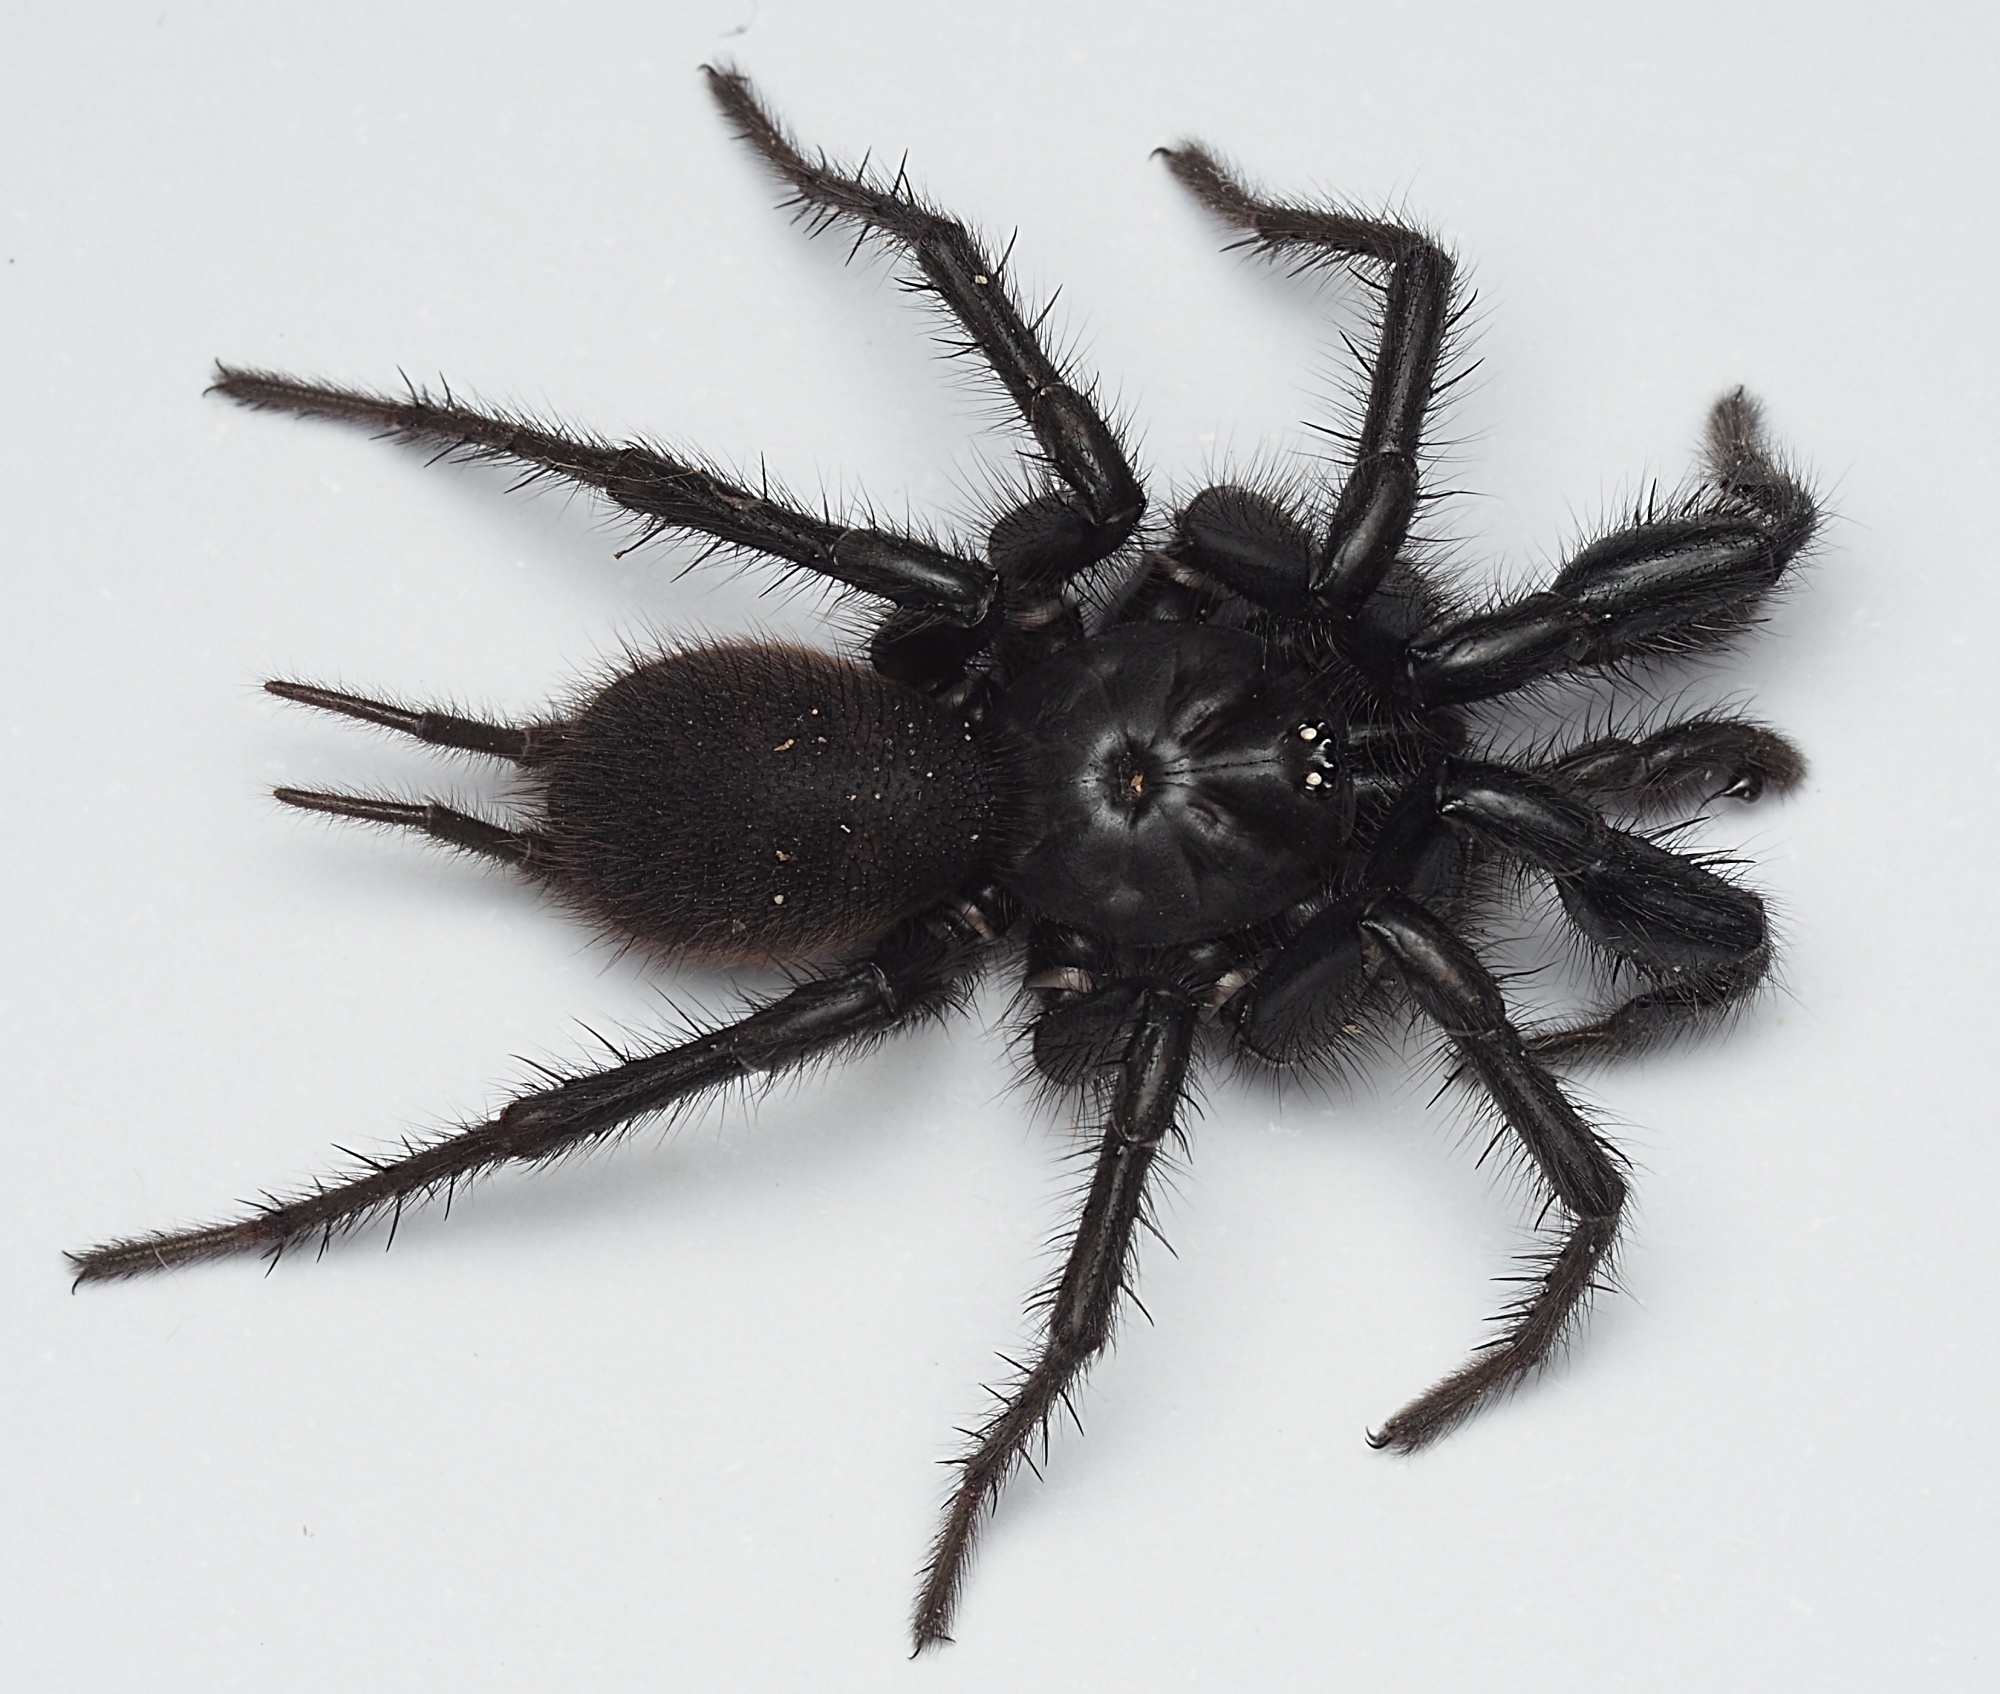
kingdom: Animalia
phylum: Arthropoda
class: Arachnida
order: Araneae
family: Porrhothelidae
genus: Porrhothele
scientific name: Porrhothele quadrigyna
